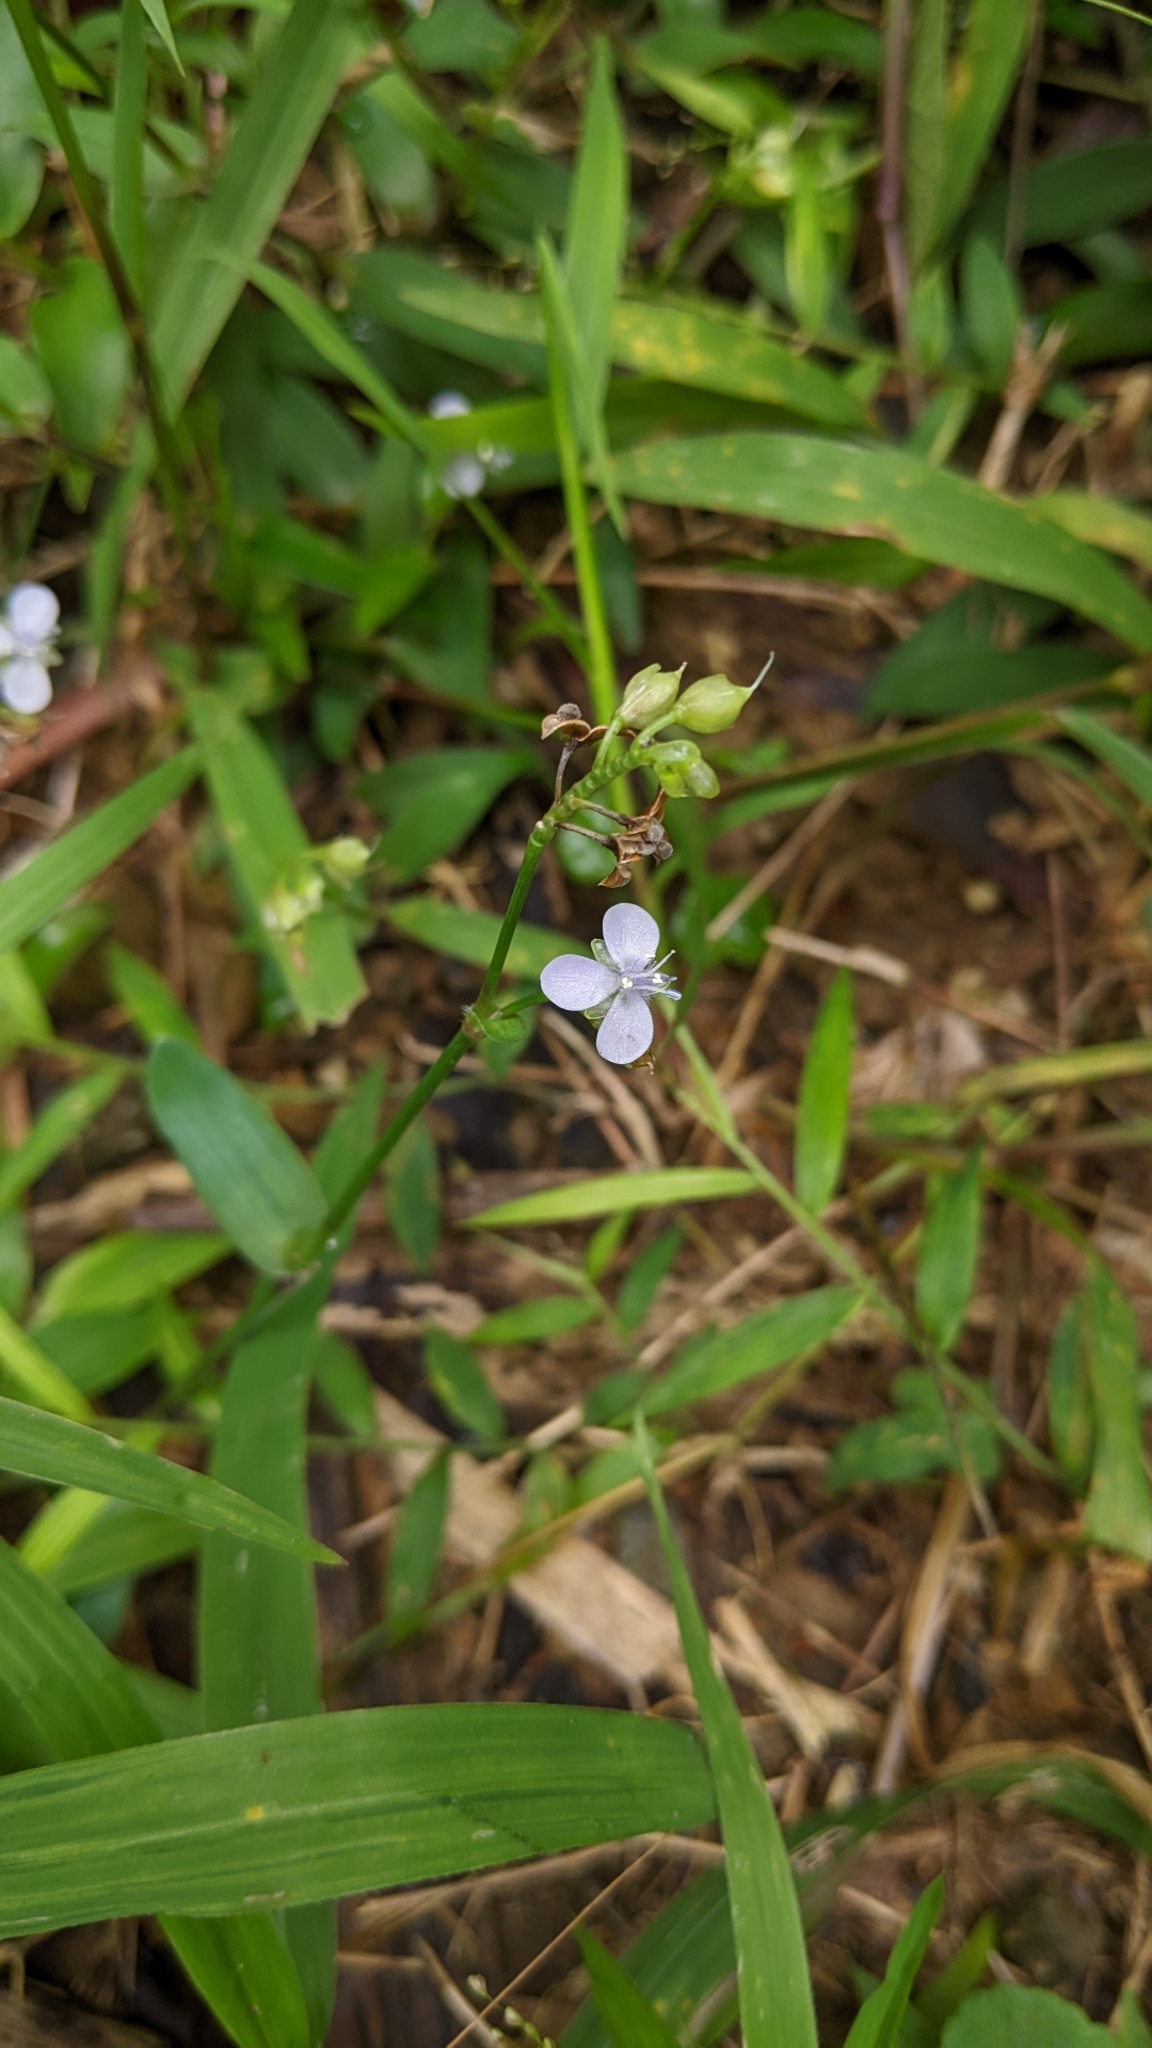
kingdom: Plantae
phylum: Tracheophyta
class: Liliopsida
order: Commelinales
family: Commelinaceae
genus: Murdannia
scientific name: Murdannia loriformis
